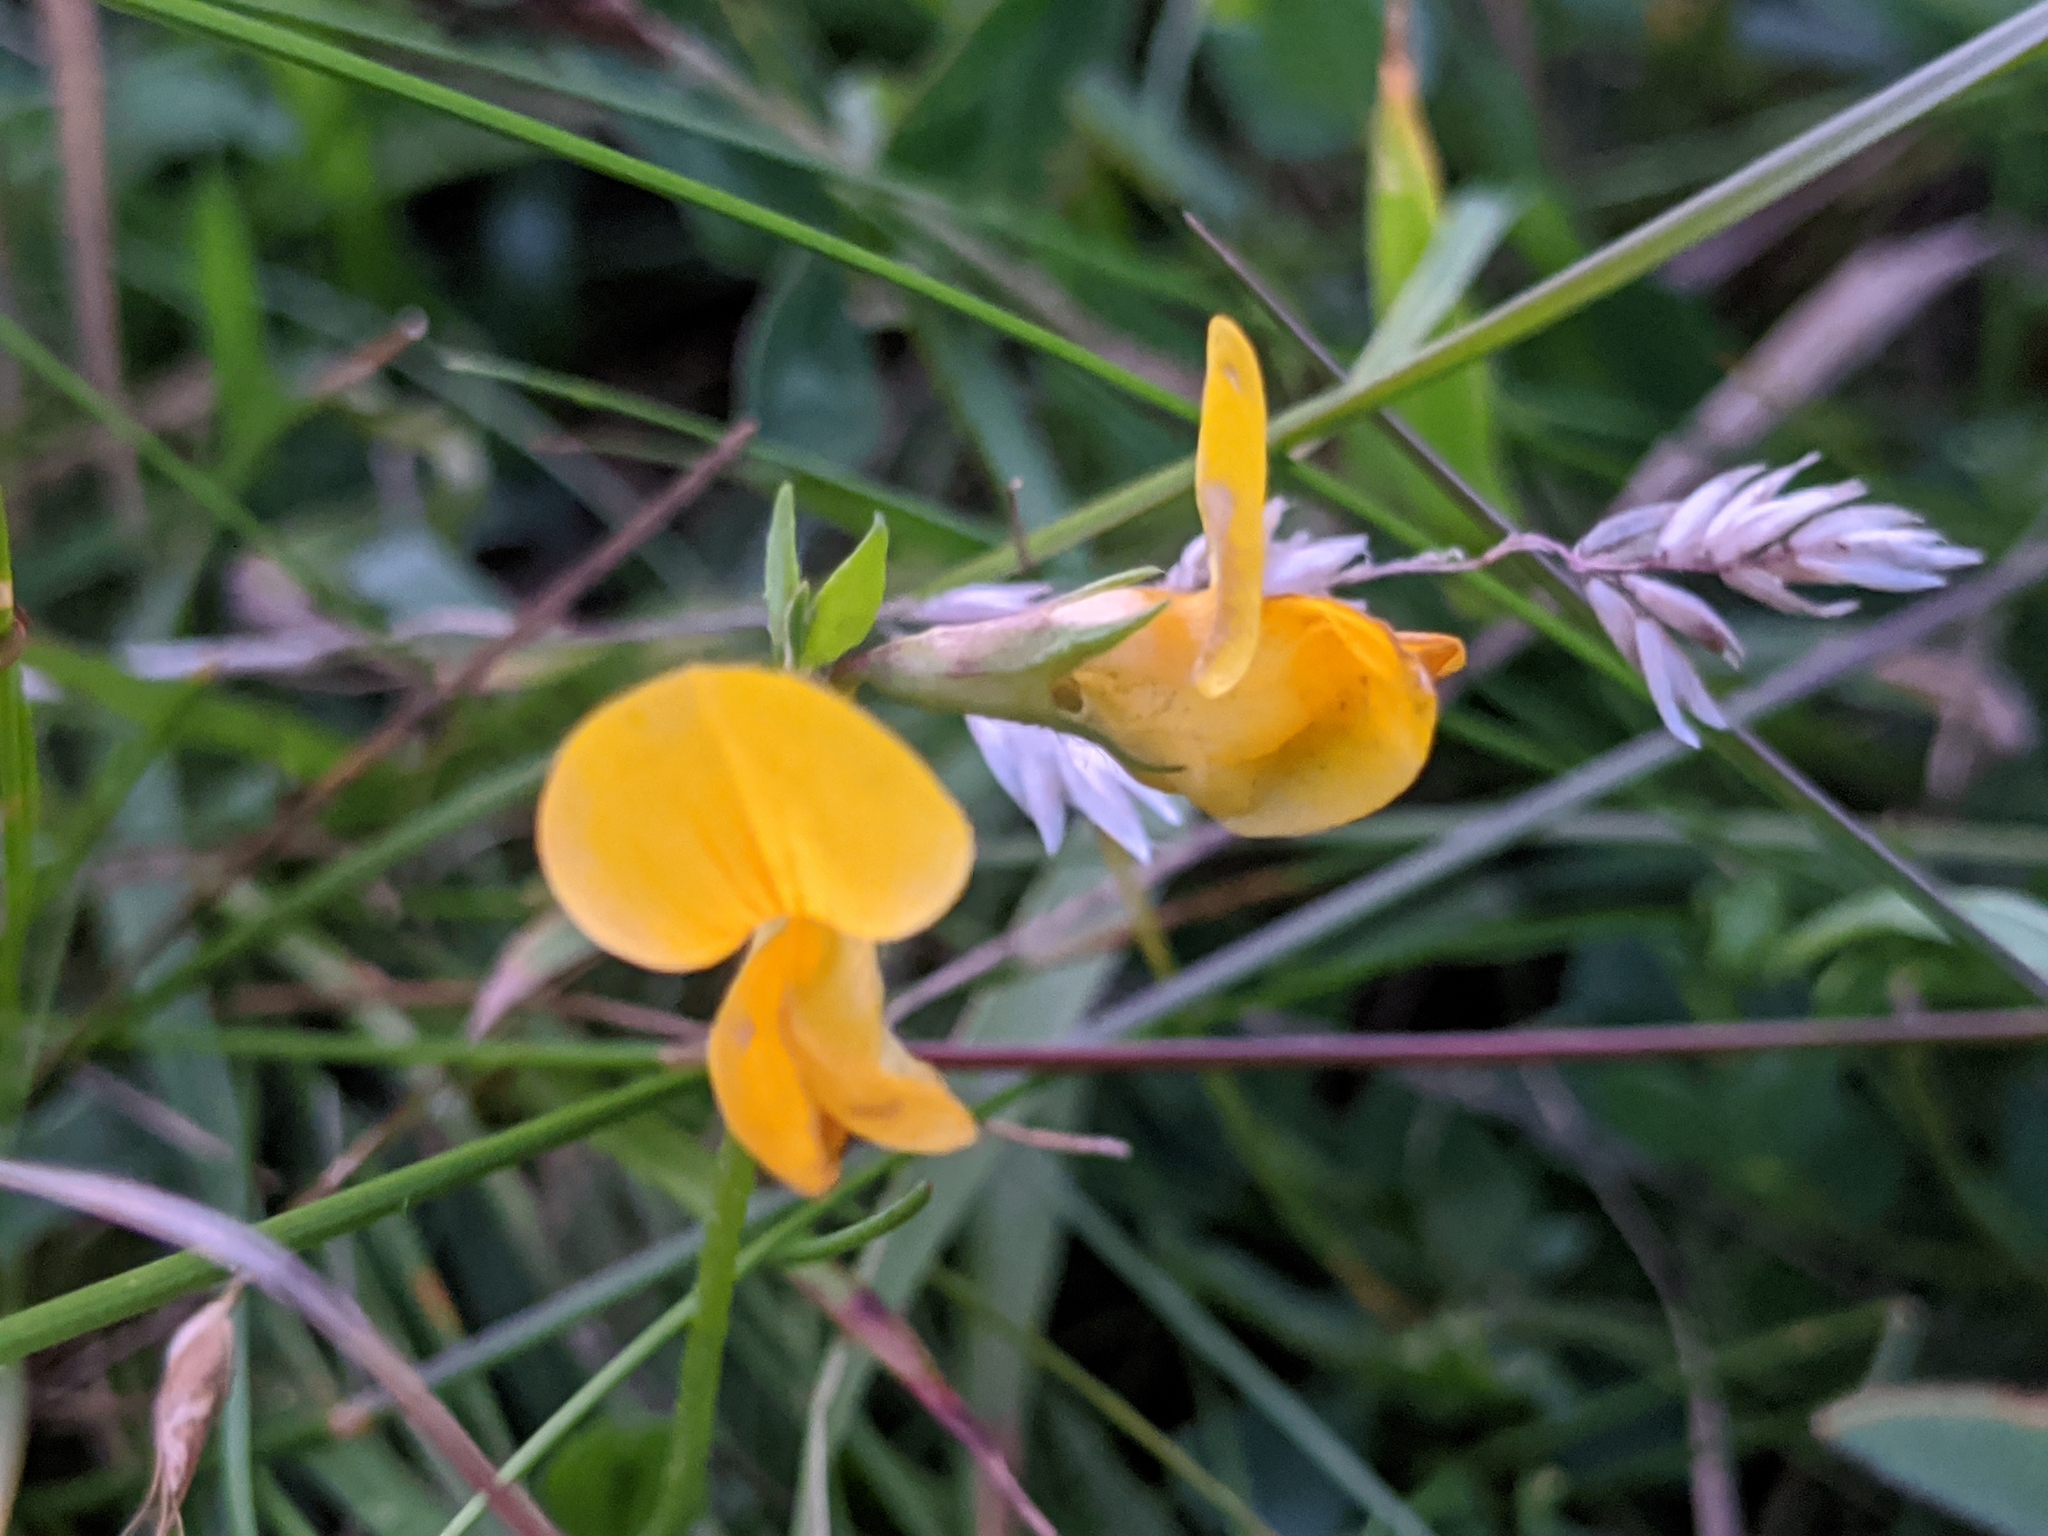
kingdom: Plantae
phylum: Tracheophyta
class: Magnoliopsida
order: Fabales
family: Fabaceae
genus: Lotus
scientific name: Lotus corniculatus
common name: Common bird's-foot-trefoil
